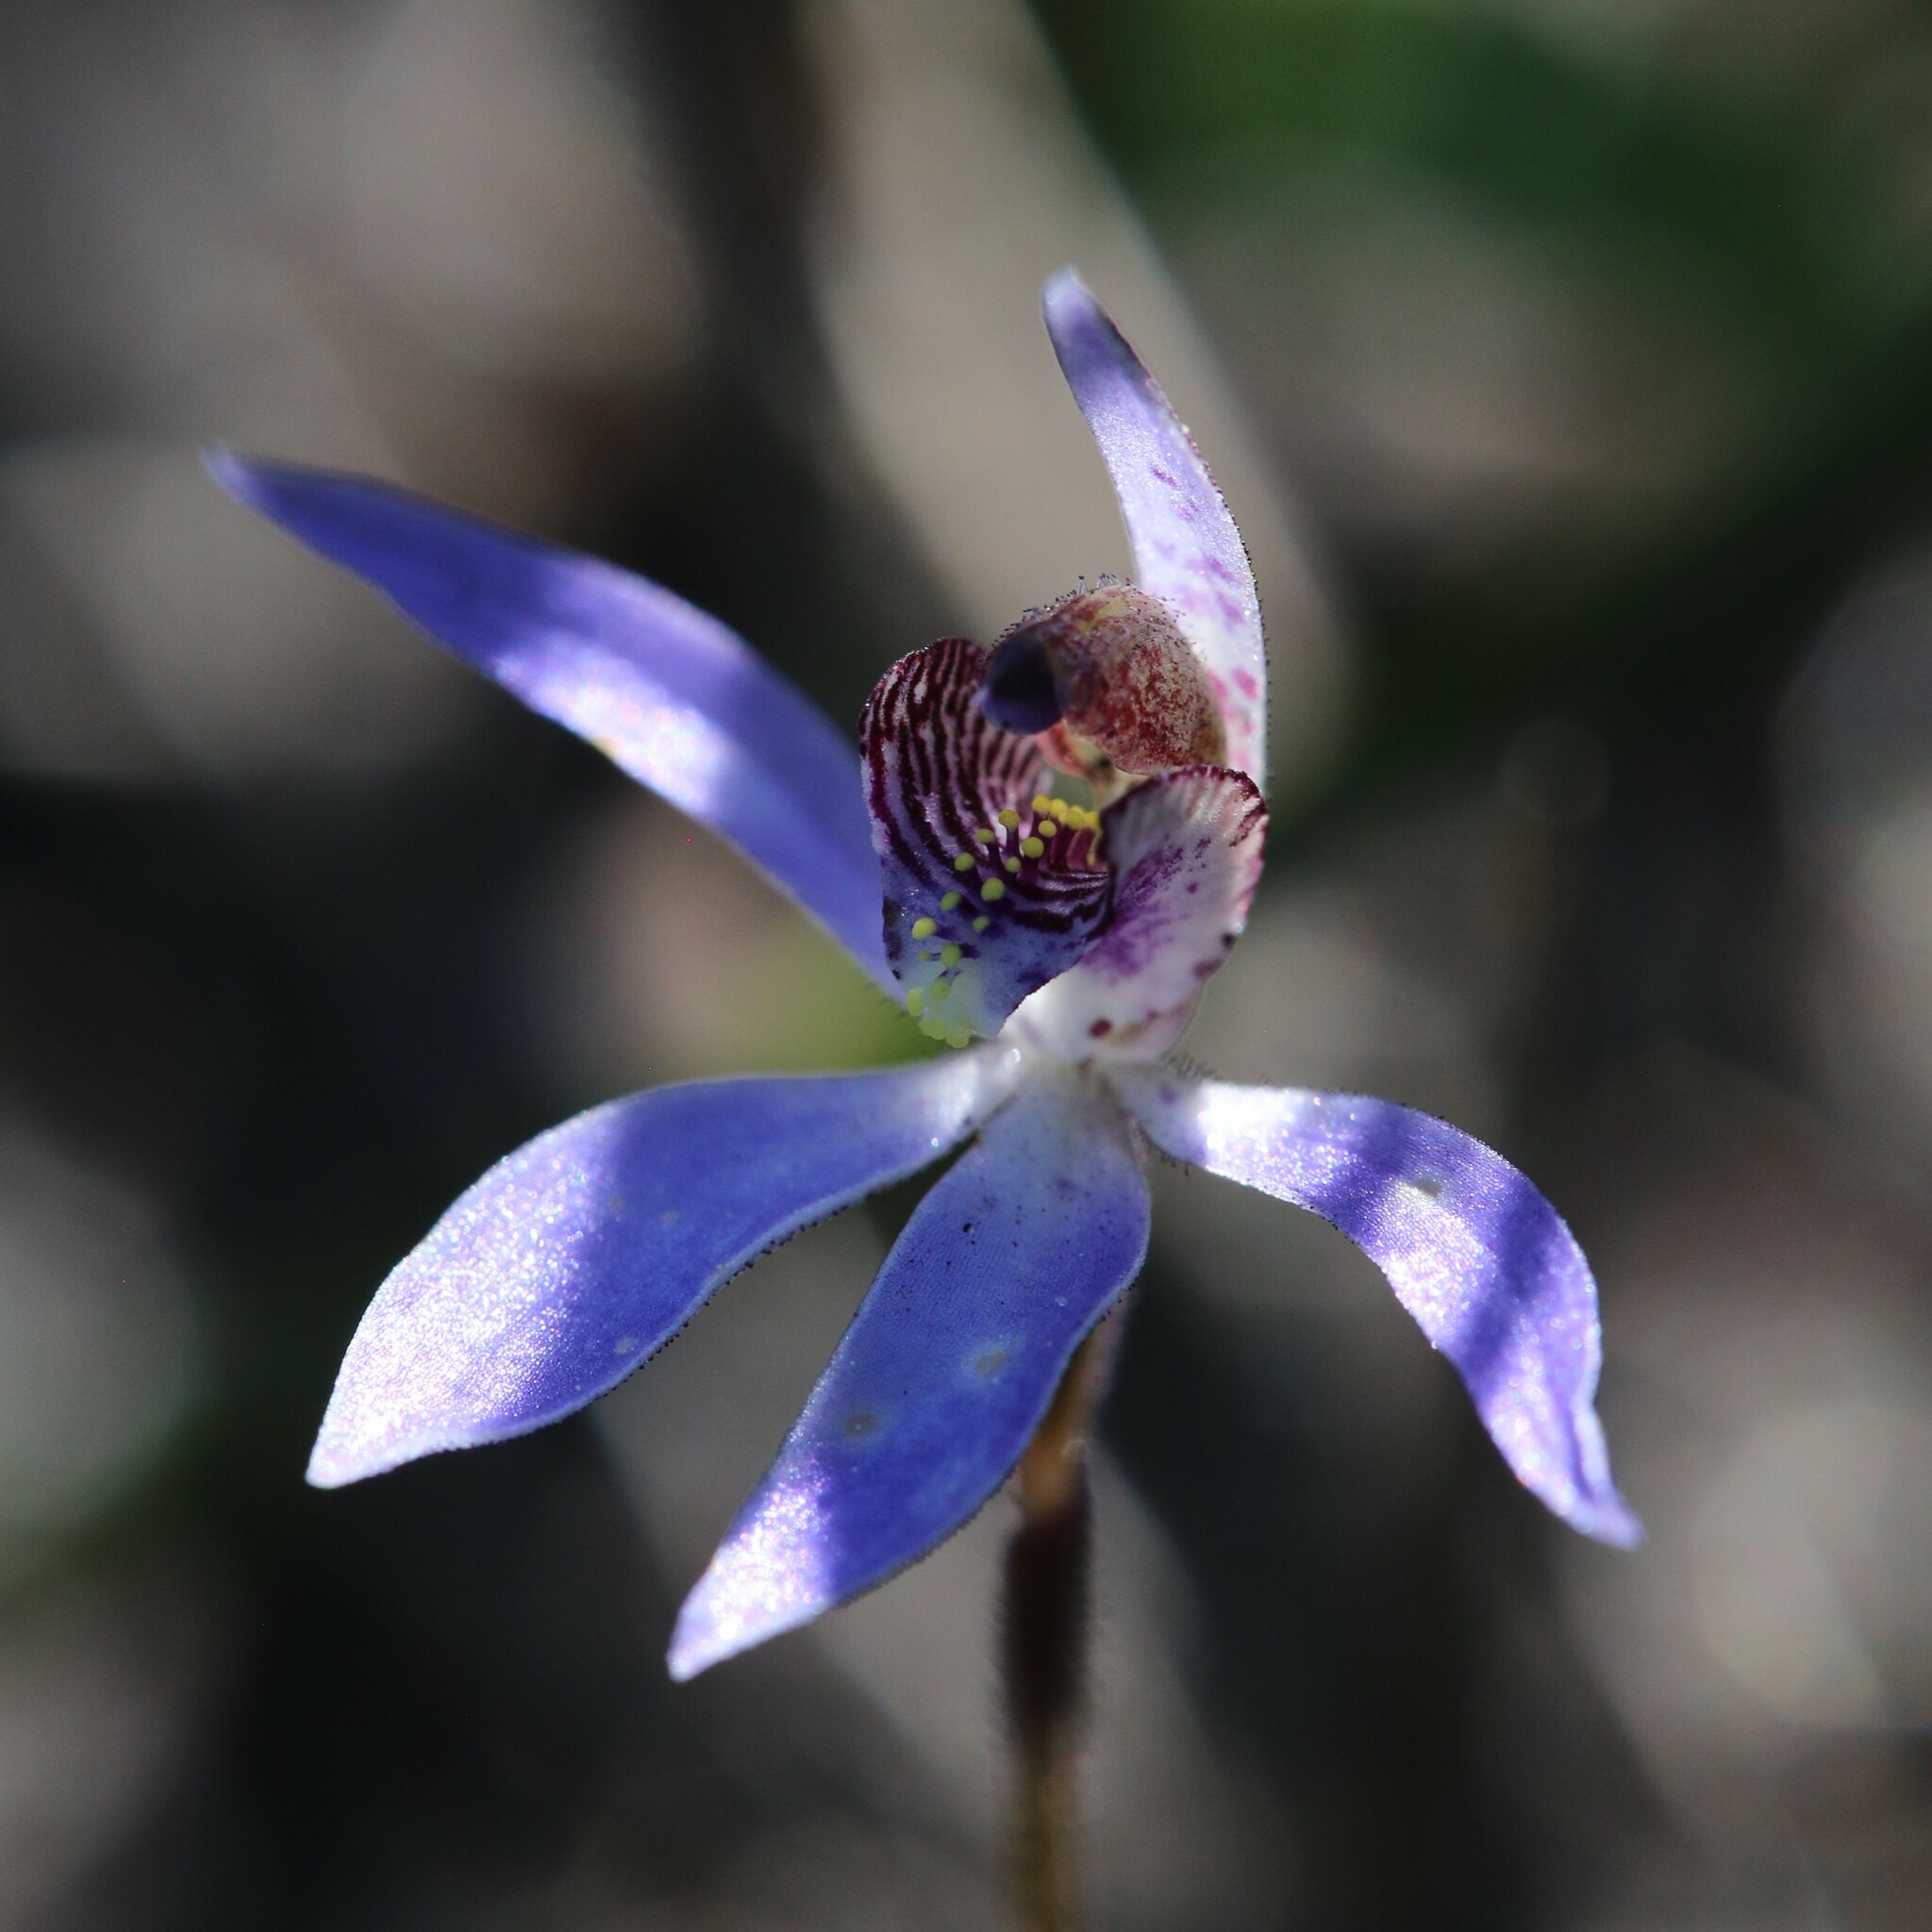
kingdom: Plantae
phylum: Tracheophyta
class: Liliopsida
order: Asparagales
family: Orchidaceae
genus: Caladenia
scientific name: Caladenia aperta
